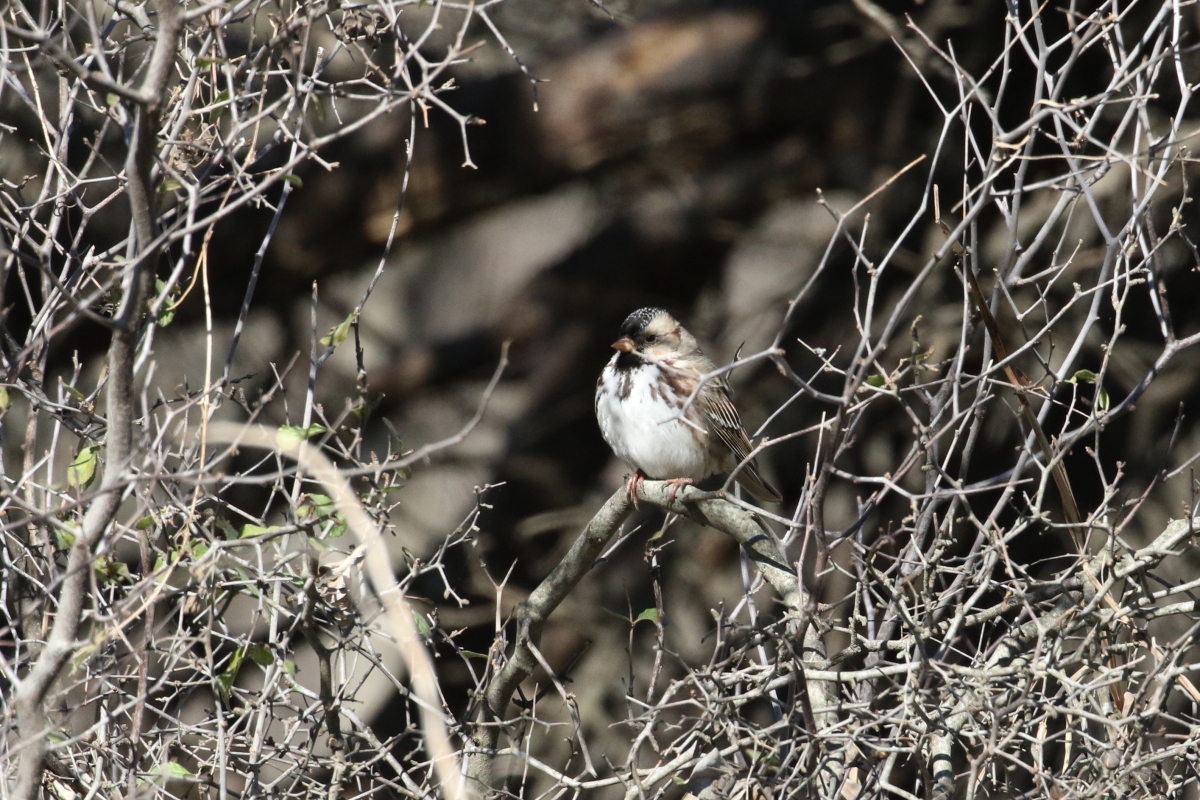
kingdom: Animalia
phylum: Chordata
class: Aves
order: Passeriformes
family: Passerellidae
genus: Zonotrichia
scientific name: Zonotrichia querula
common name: Harris's sparrow
